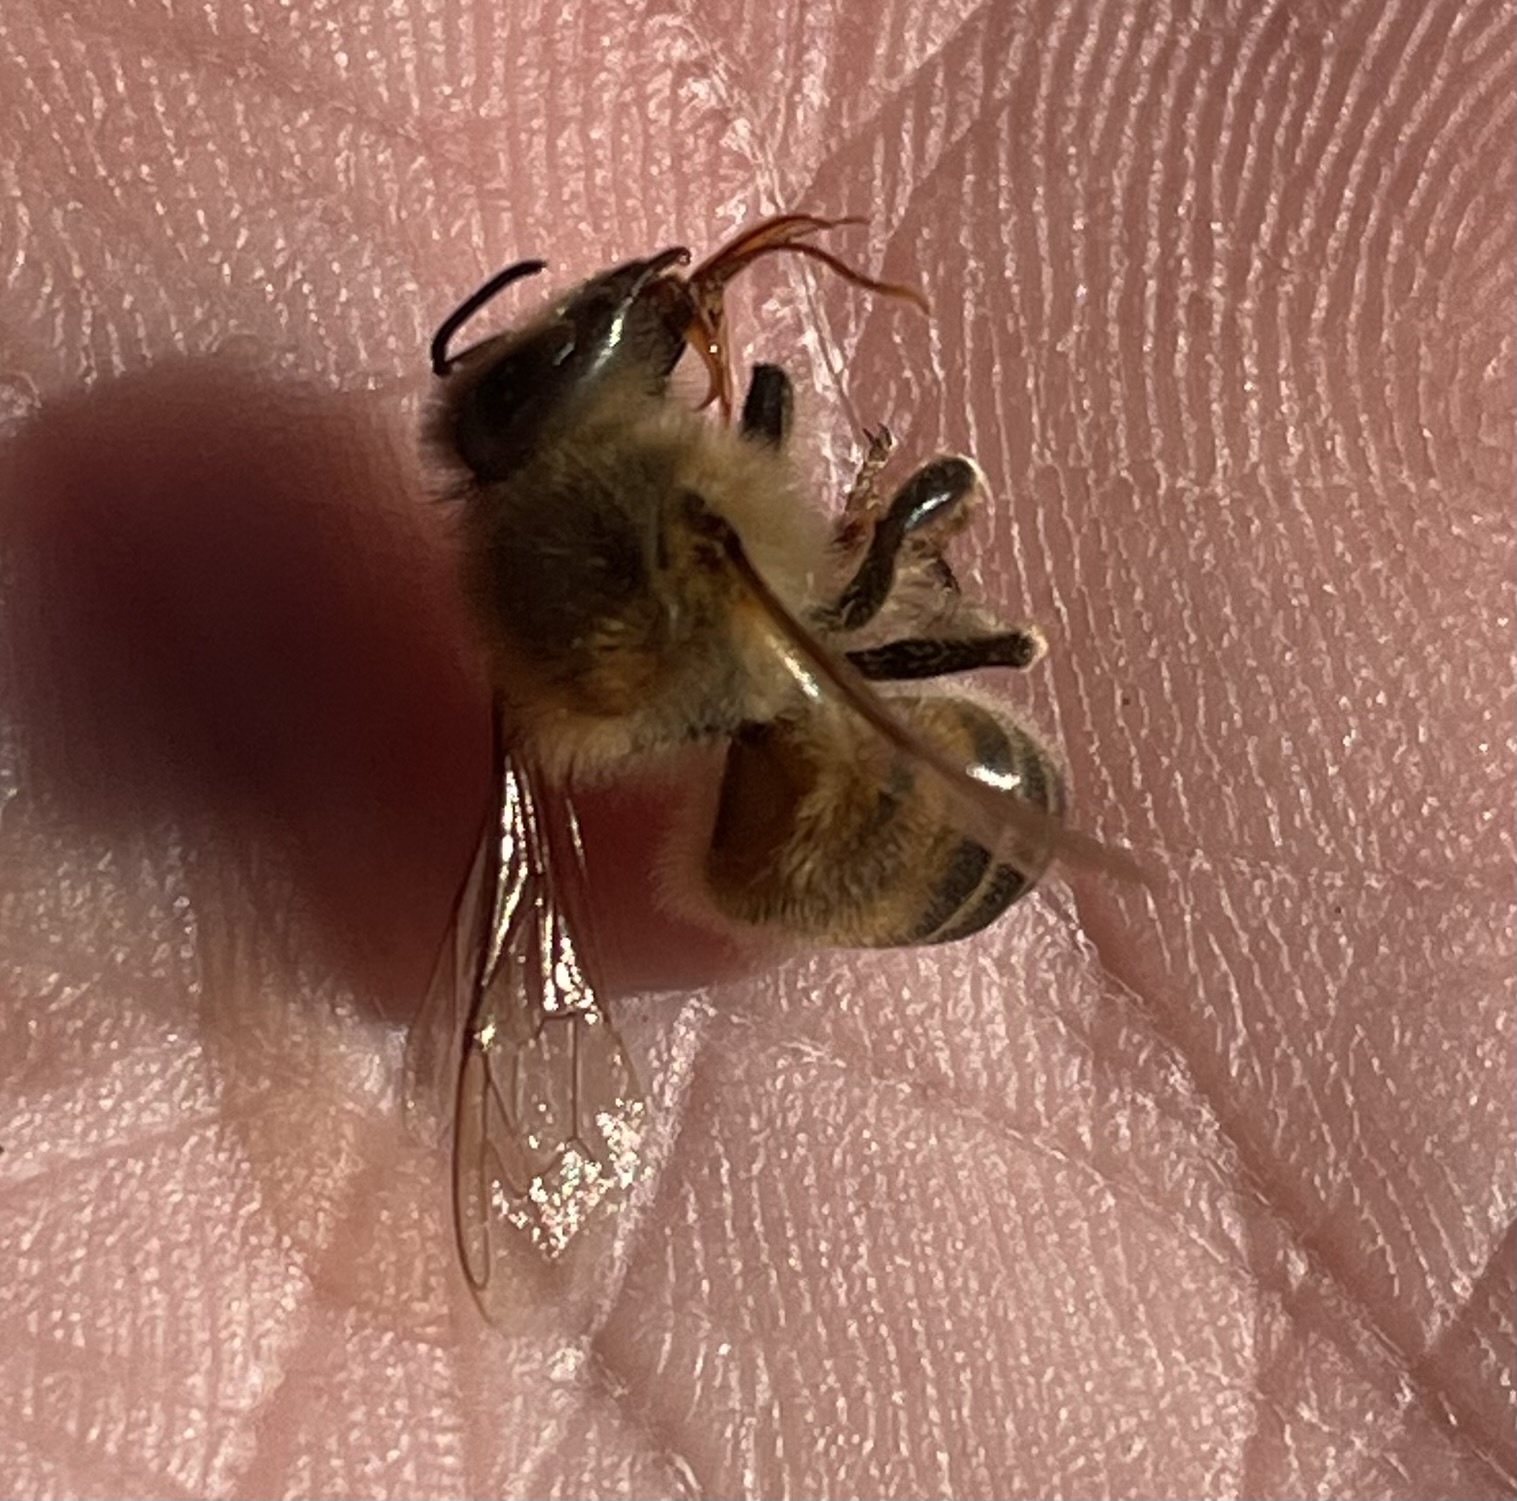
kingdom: Animalia
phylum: Arthropoda
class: Insecta
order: Hymenoptera
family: Apidae
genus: Apis
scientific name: Apis mellifera
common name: Honey bee
